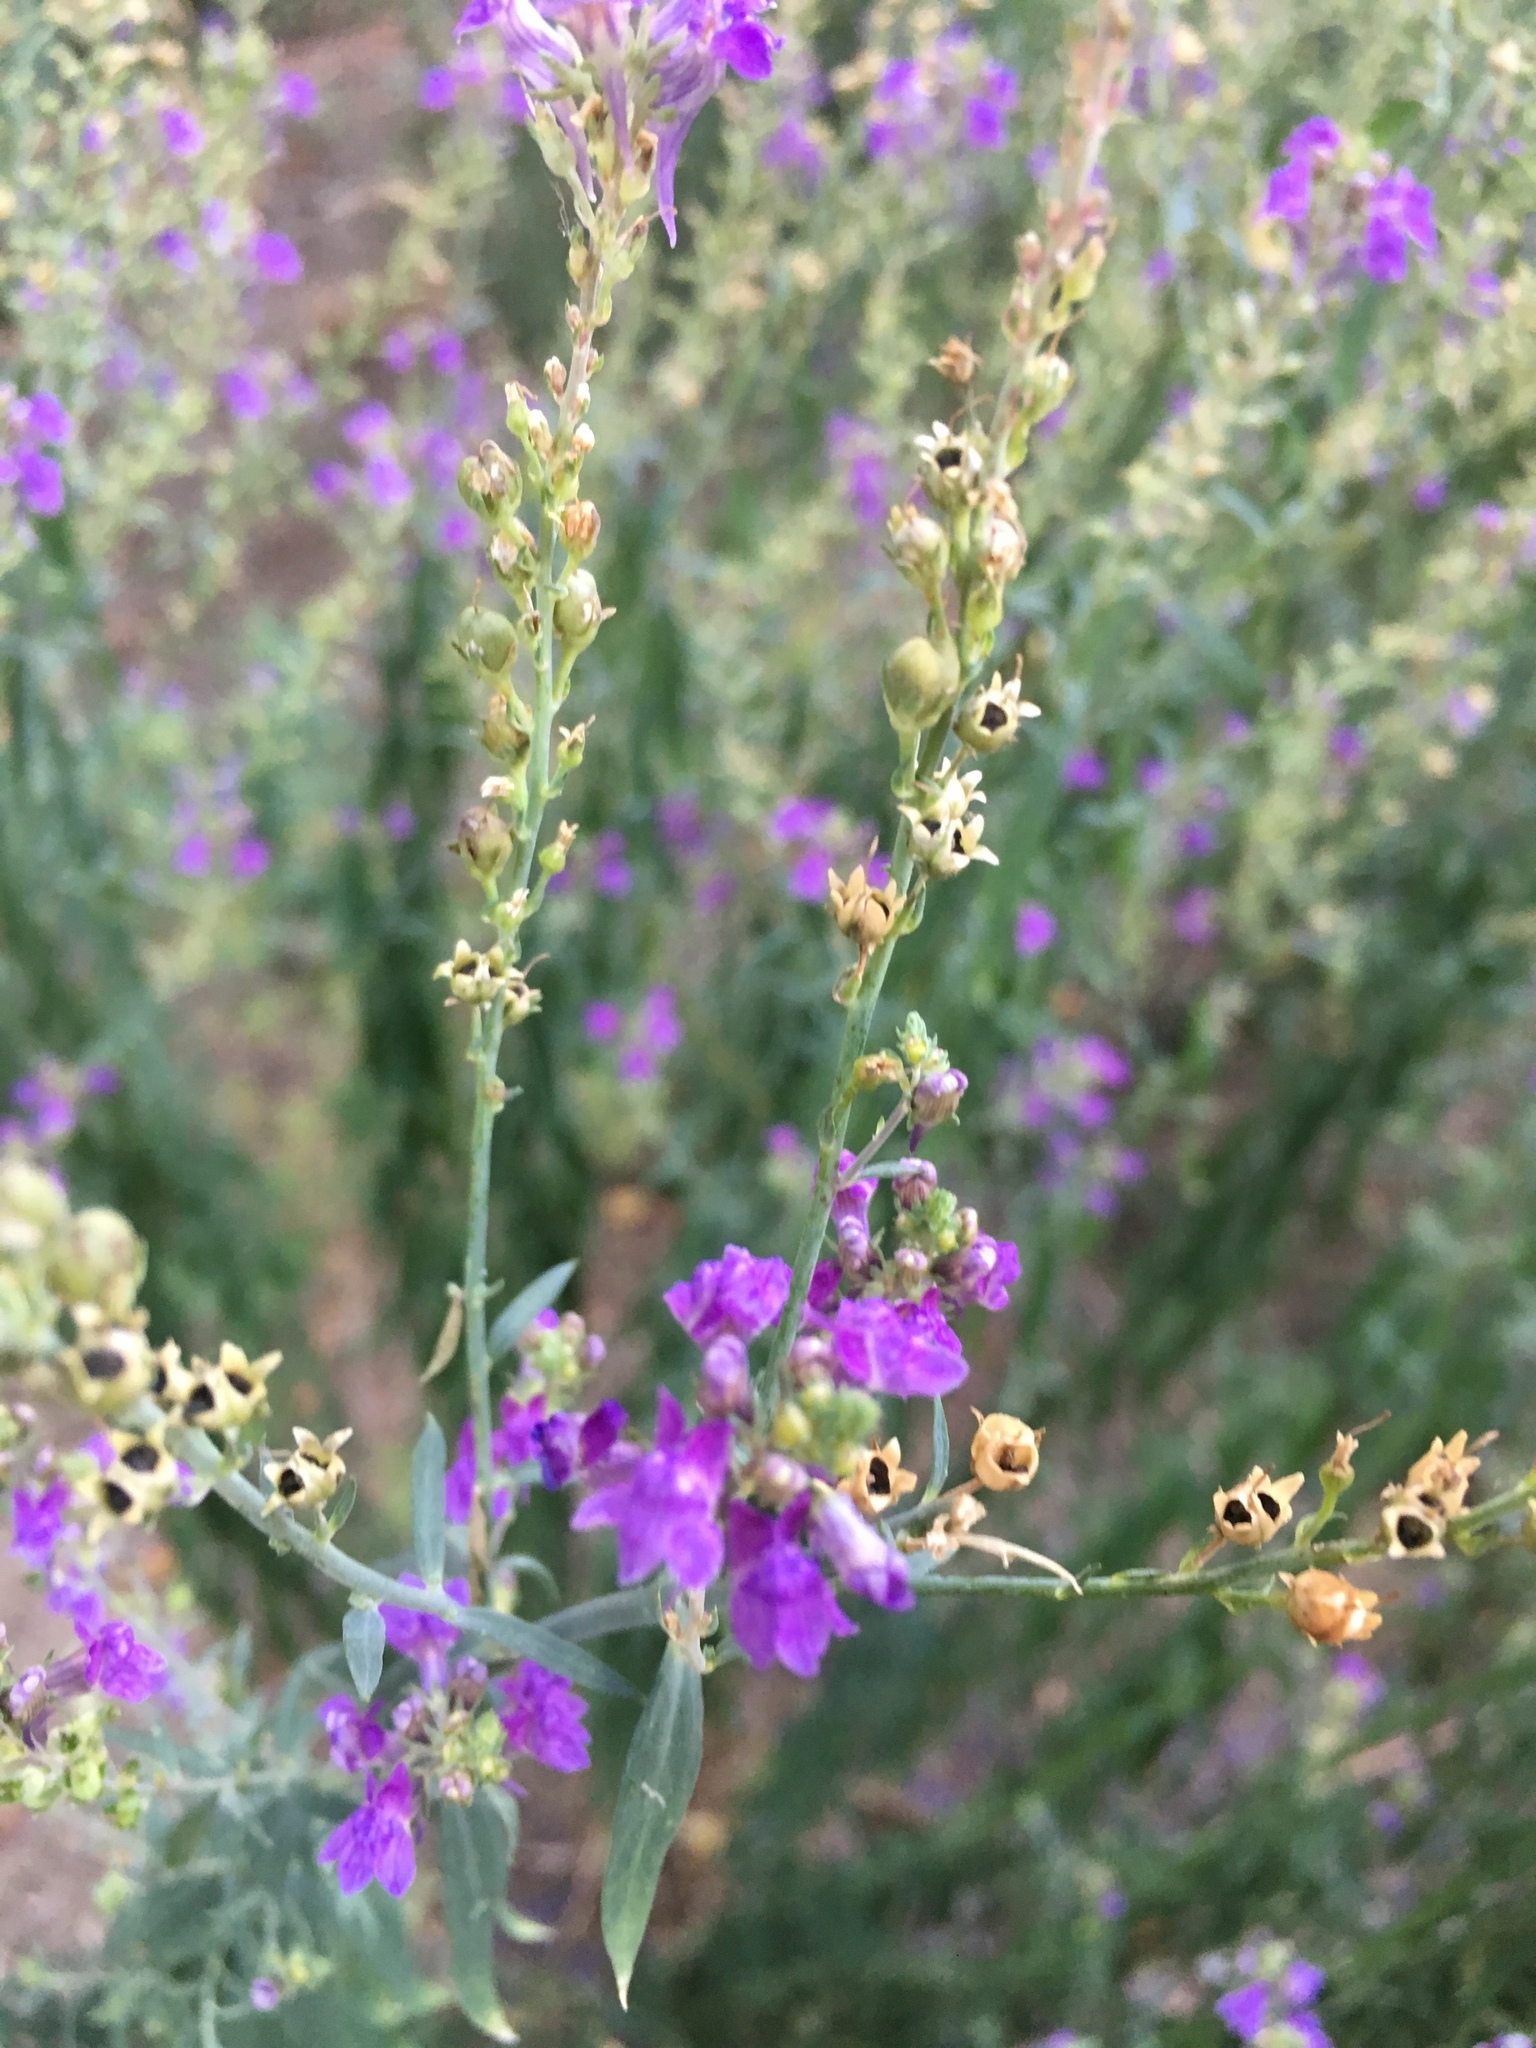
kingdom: Plantae
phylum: Tracheophyta
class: Magnoliopsida
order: Lamiales
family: Plantaginaceae
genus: Linaria
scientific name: Linaria purpurea
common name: Purple toadflax
